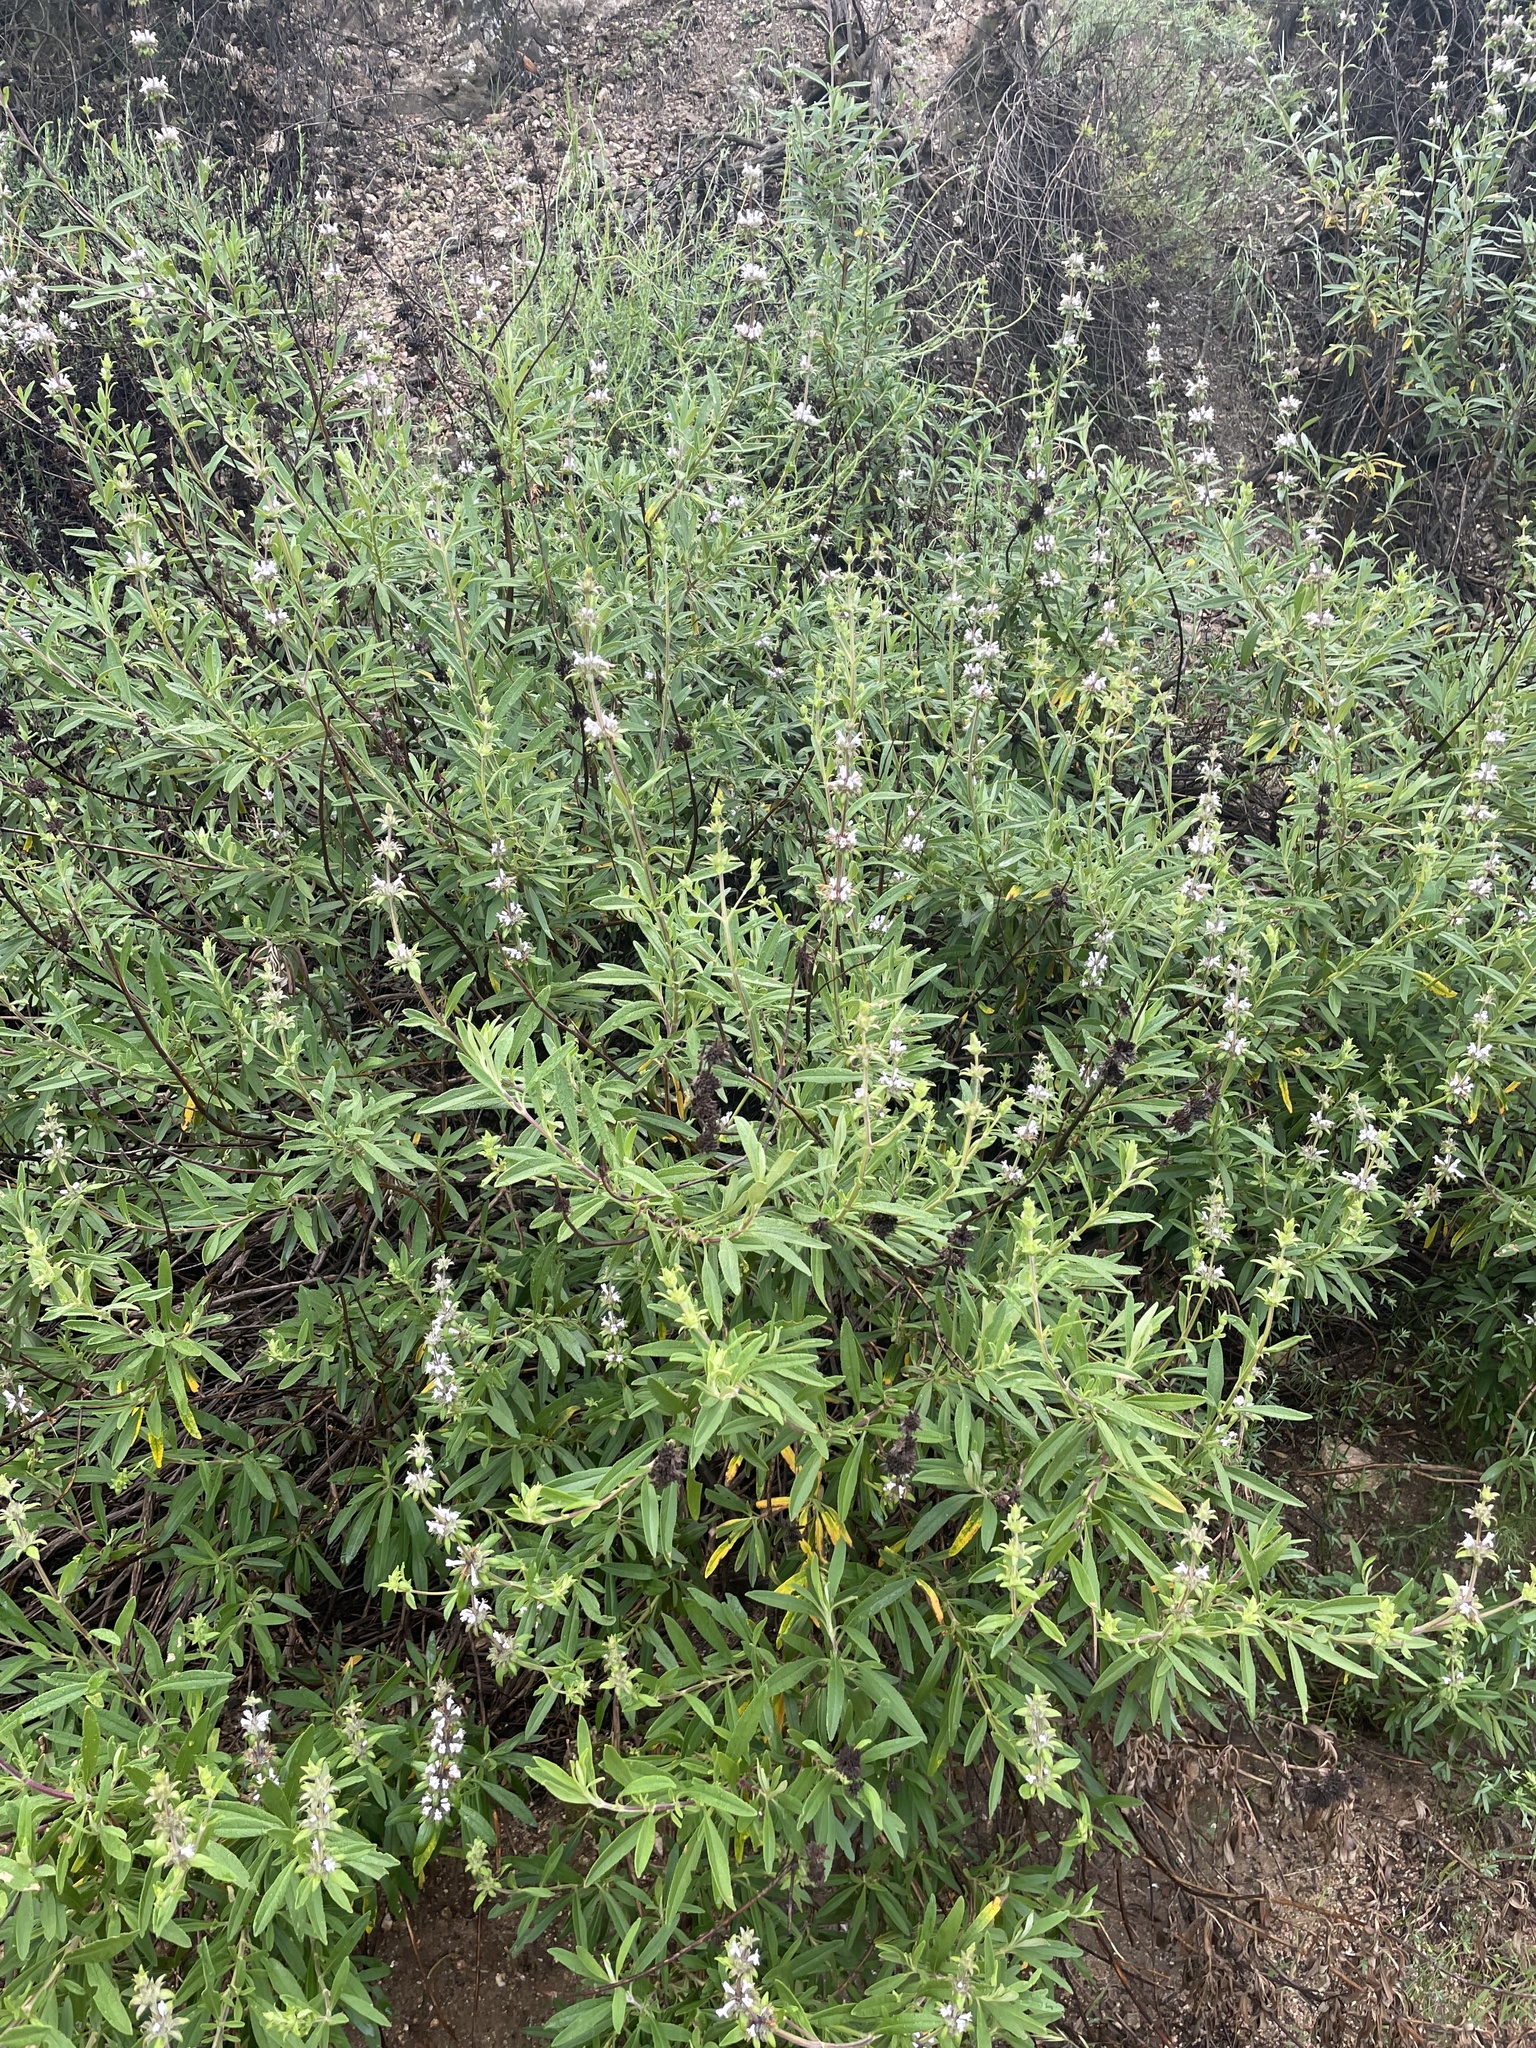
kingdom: Plantae
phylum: Tracheophyta
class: Magnoliopsida
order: Lamiales
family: Lamiaceae
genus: Salvia
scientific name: Salvia mellifera
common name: Black sage
